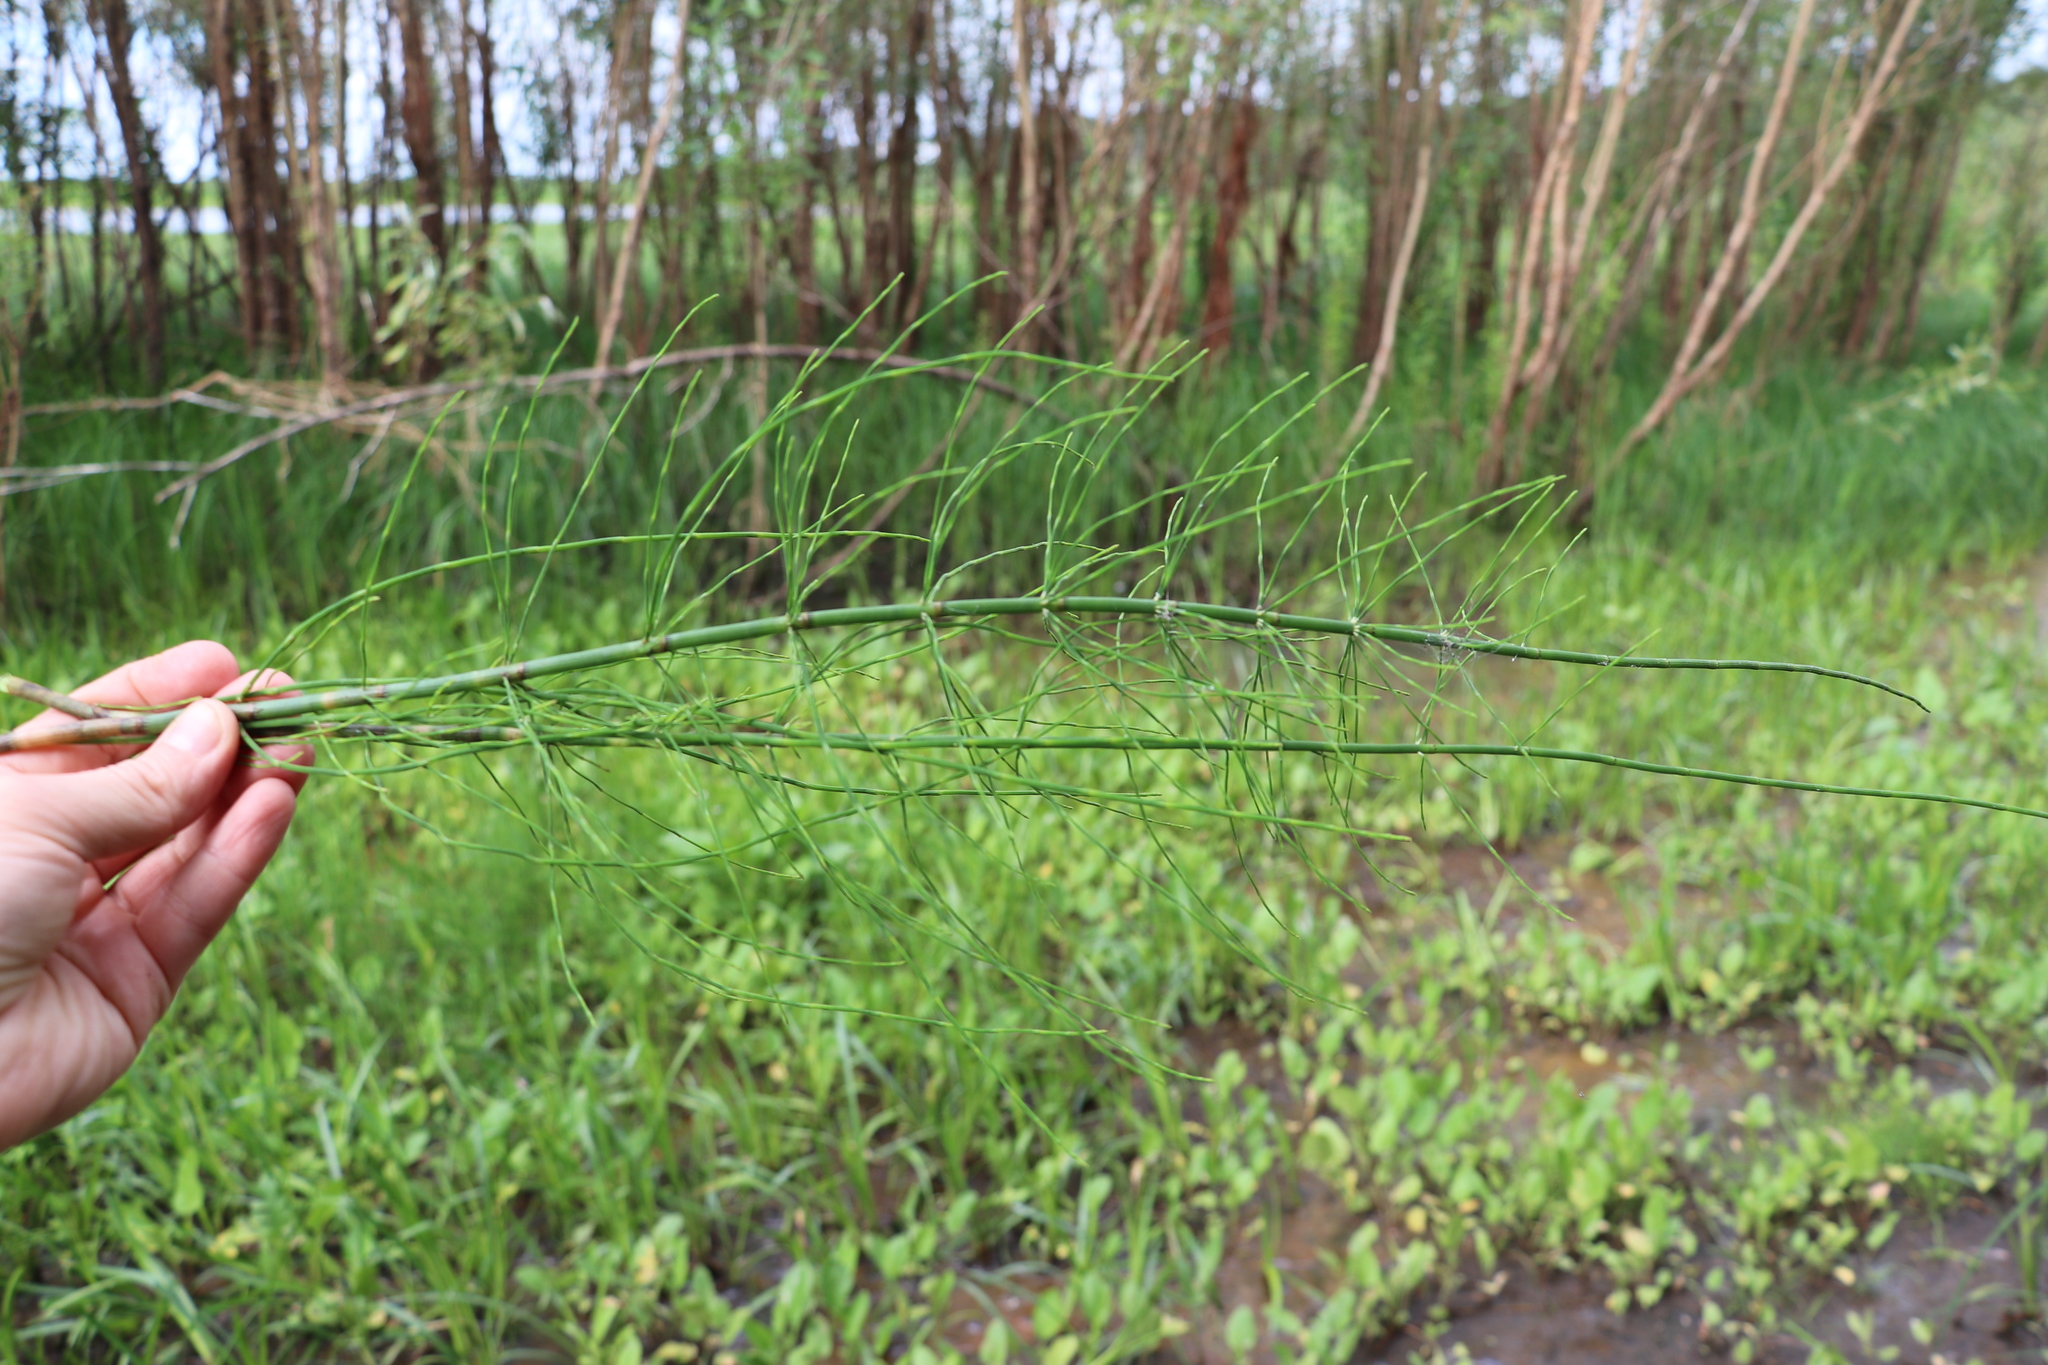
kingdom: Plantae
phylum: Tracheophyta
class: Polypodiopsida
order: Equisetales
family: Equisetaceae
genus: Equisetum
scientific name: Equisetum fluviatile
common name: Water horsetail
